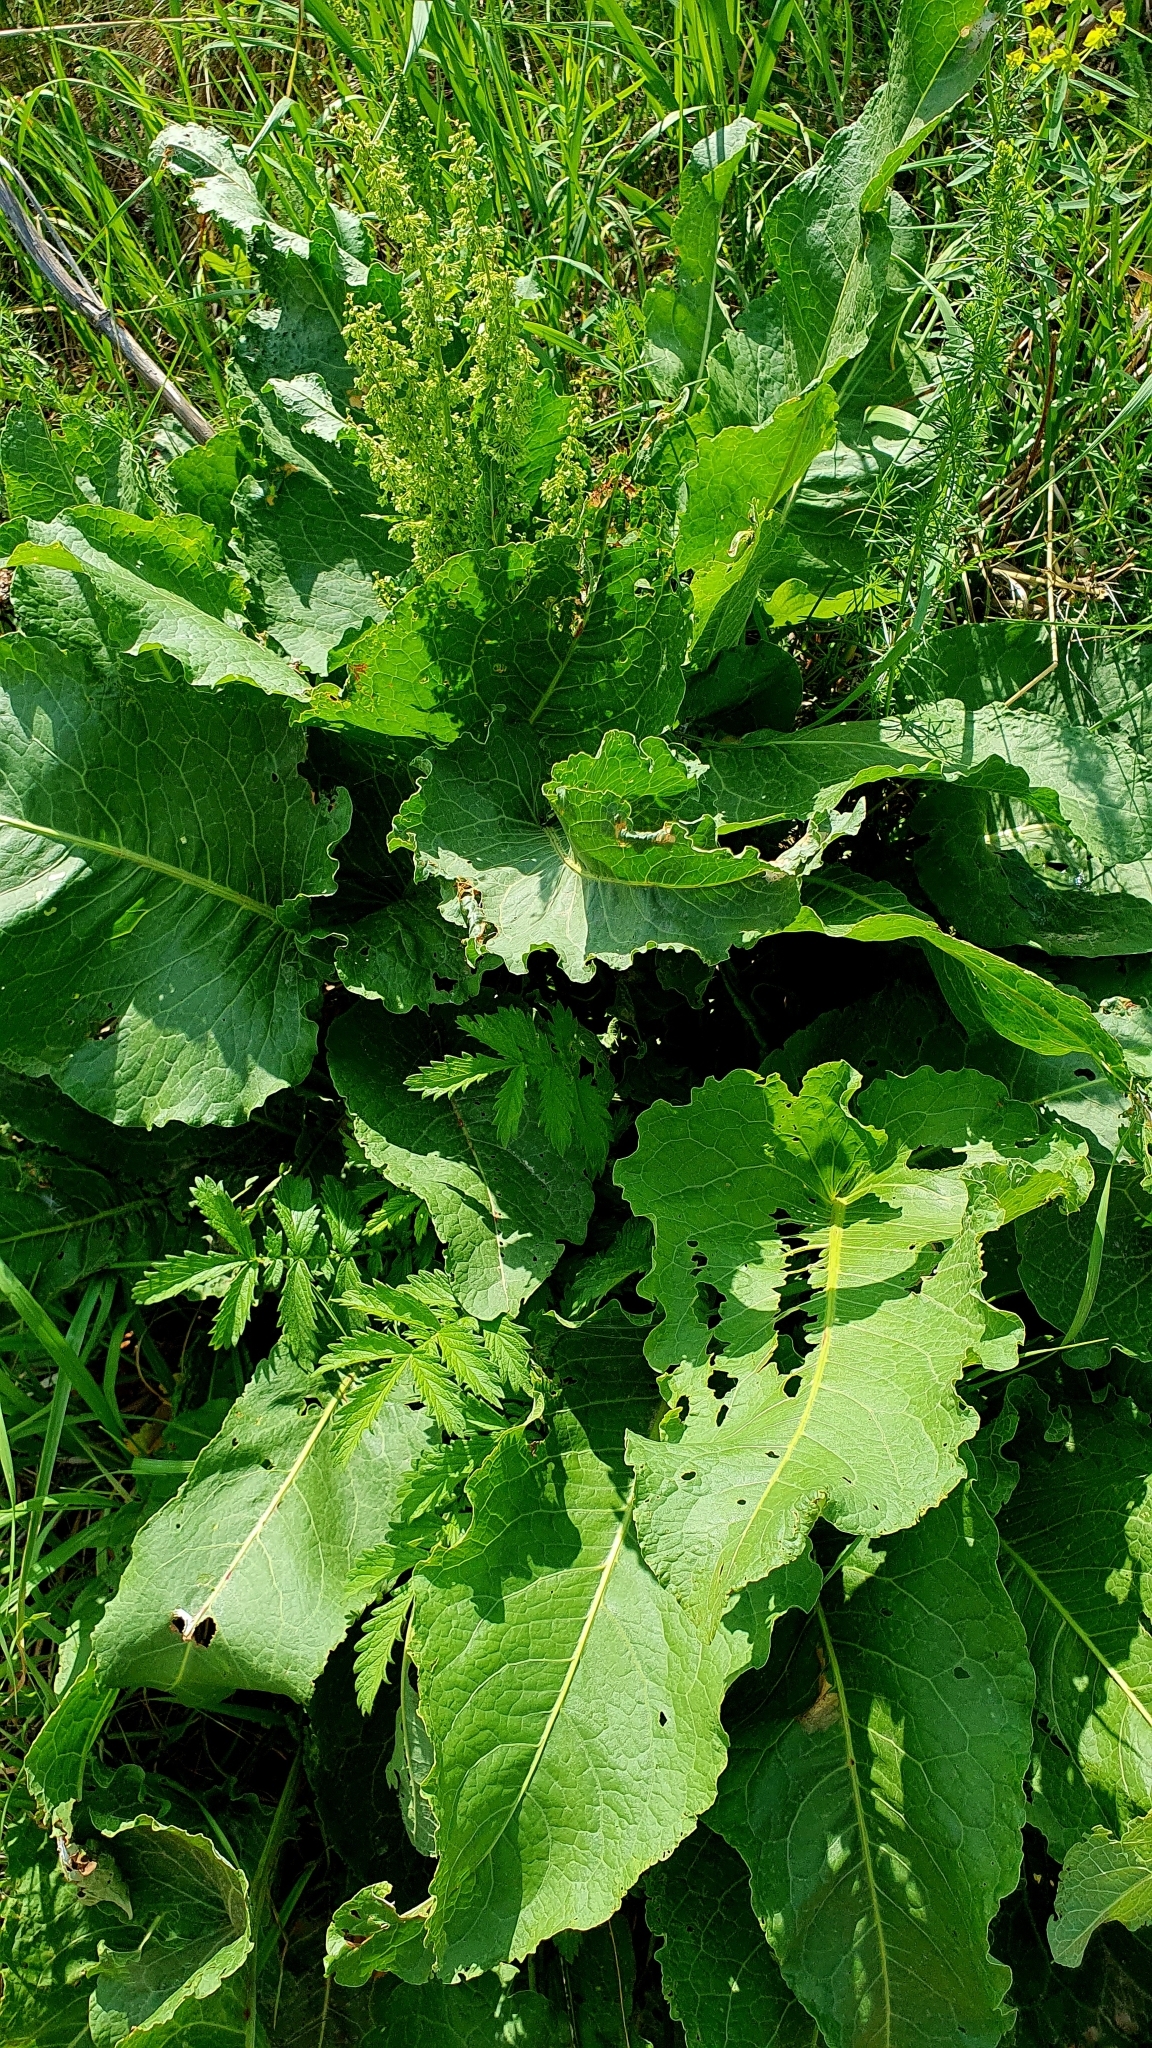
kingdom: Plantae
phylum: Tracheophyta
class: Magnoliopsida
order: Caryophyllales
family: Polygonaceae
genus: Rumex
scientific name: Rumex confertus
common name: Russian dock
